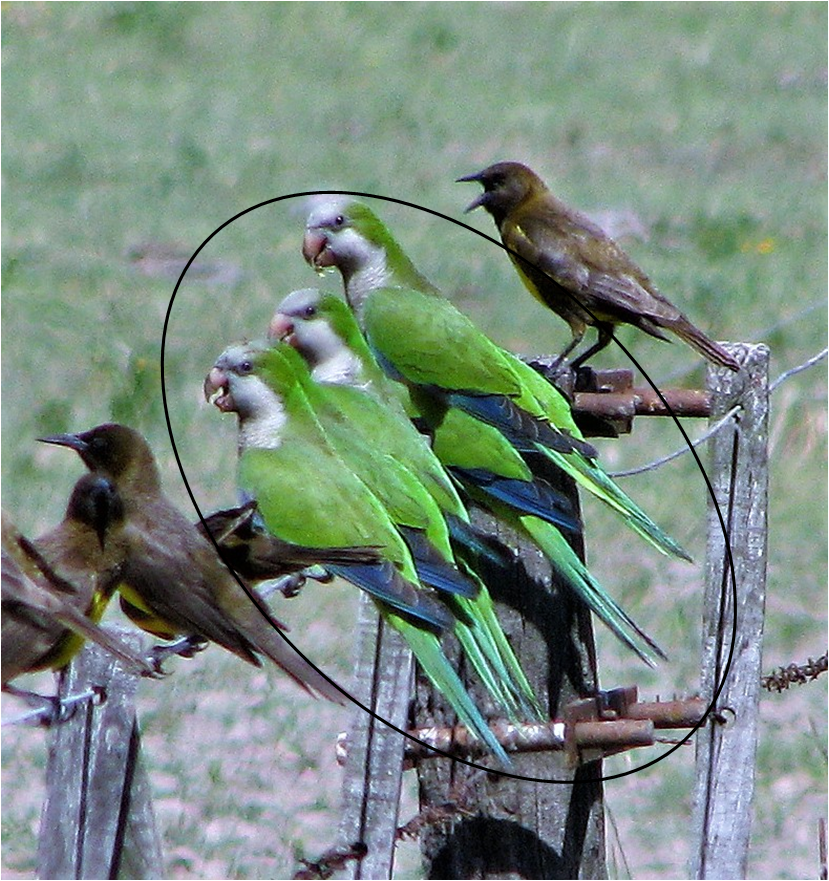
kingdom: Animalia
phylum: Chordata
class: Aves
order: Psittaciformes
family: Psittacidae
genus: Myiopsitta
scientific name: Myiopsitta monachus
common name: Monk parakeet
